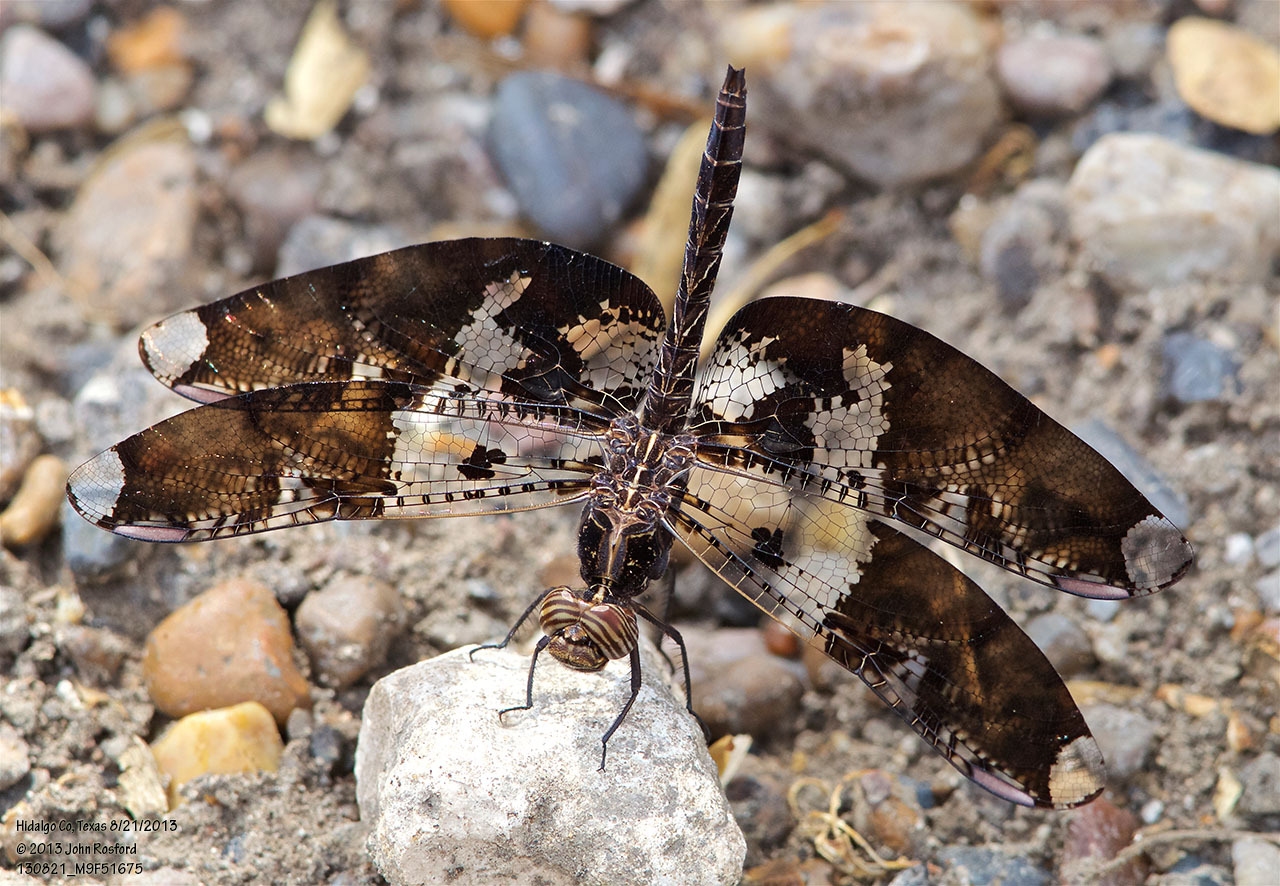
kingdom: Animalia
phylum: Arthropoda
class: Insecta
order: Odonata
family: Libellulidae
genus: Pseudoleon
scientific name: Pseudoleon superbus
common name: Filigree skimmer
